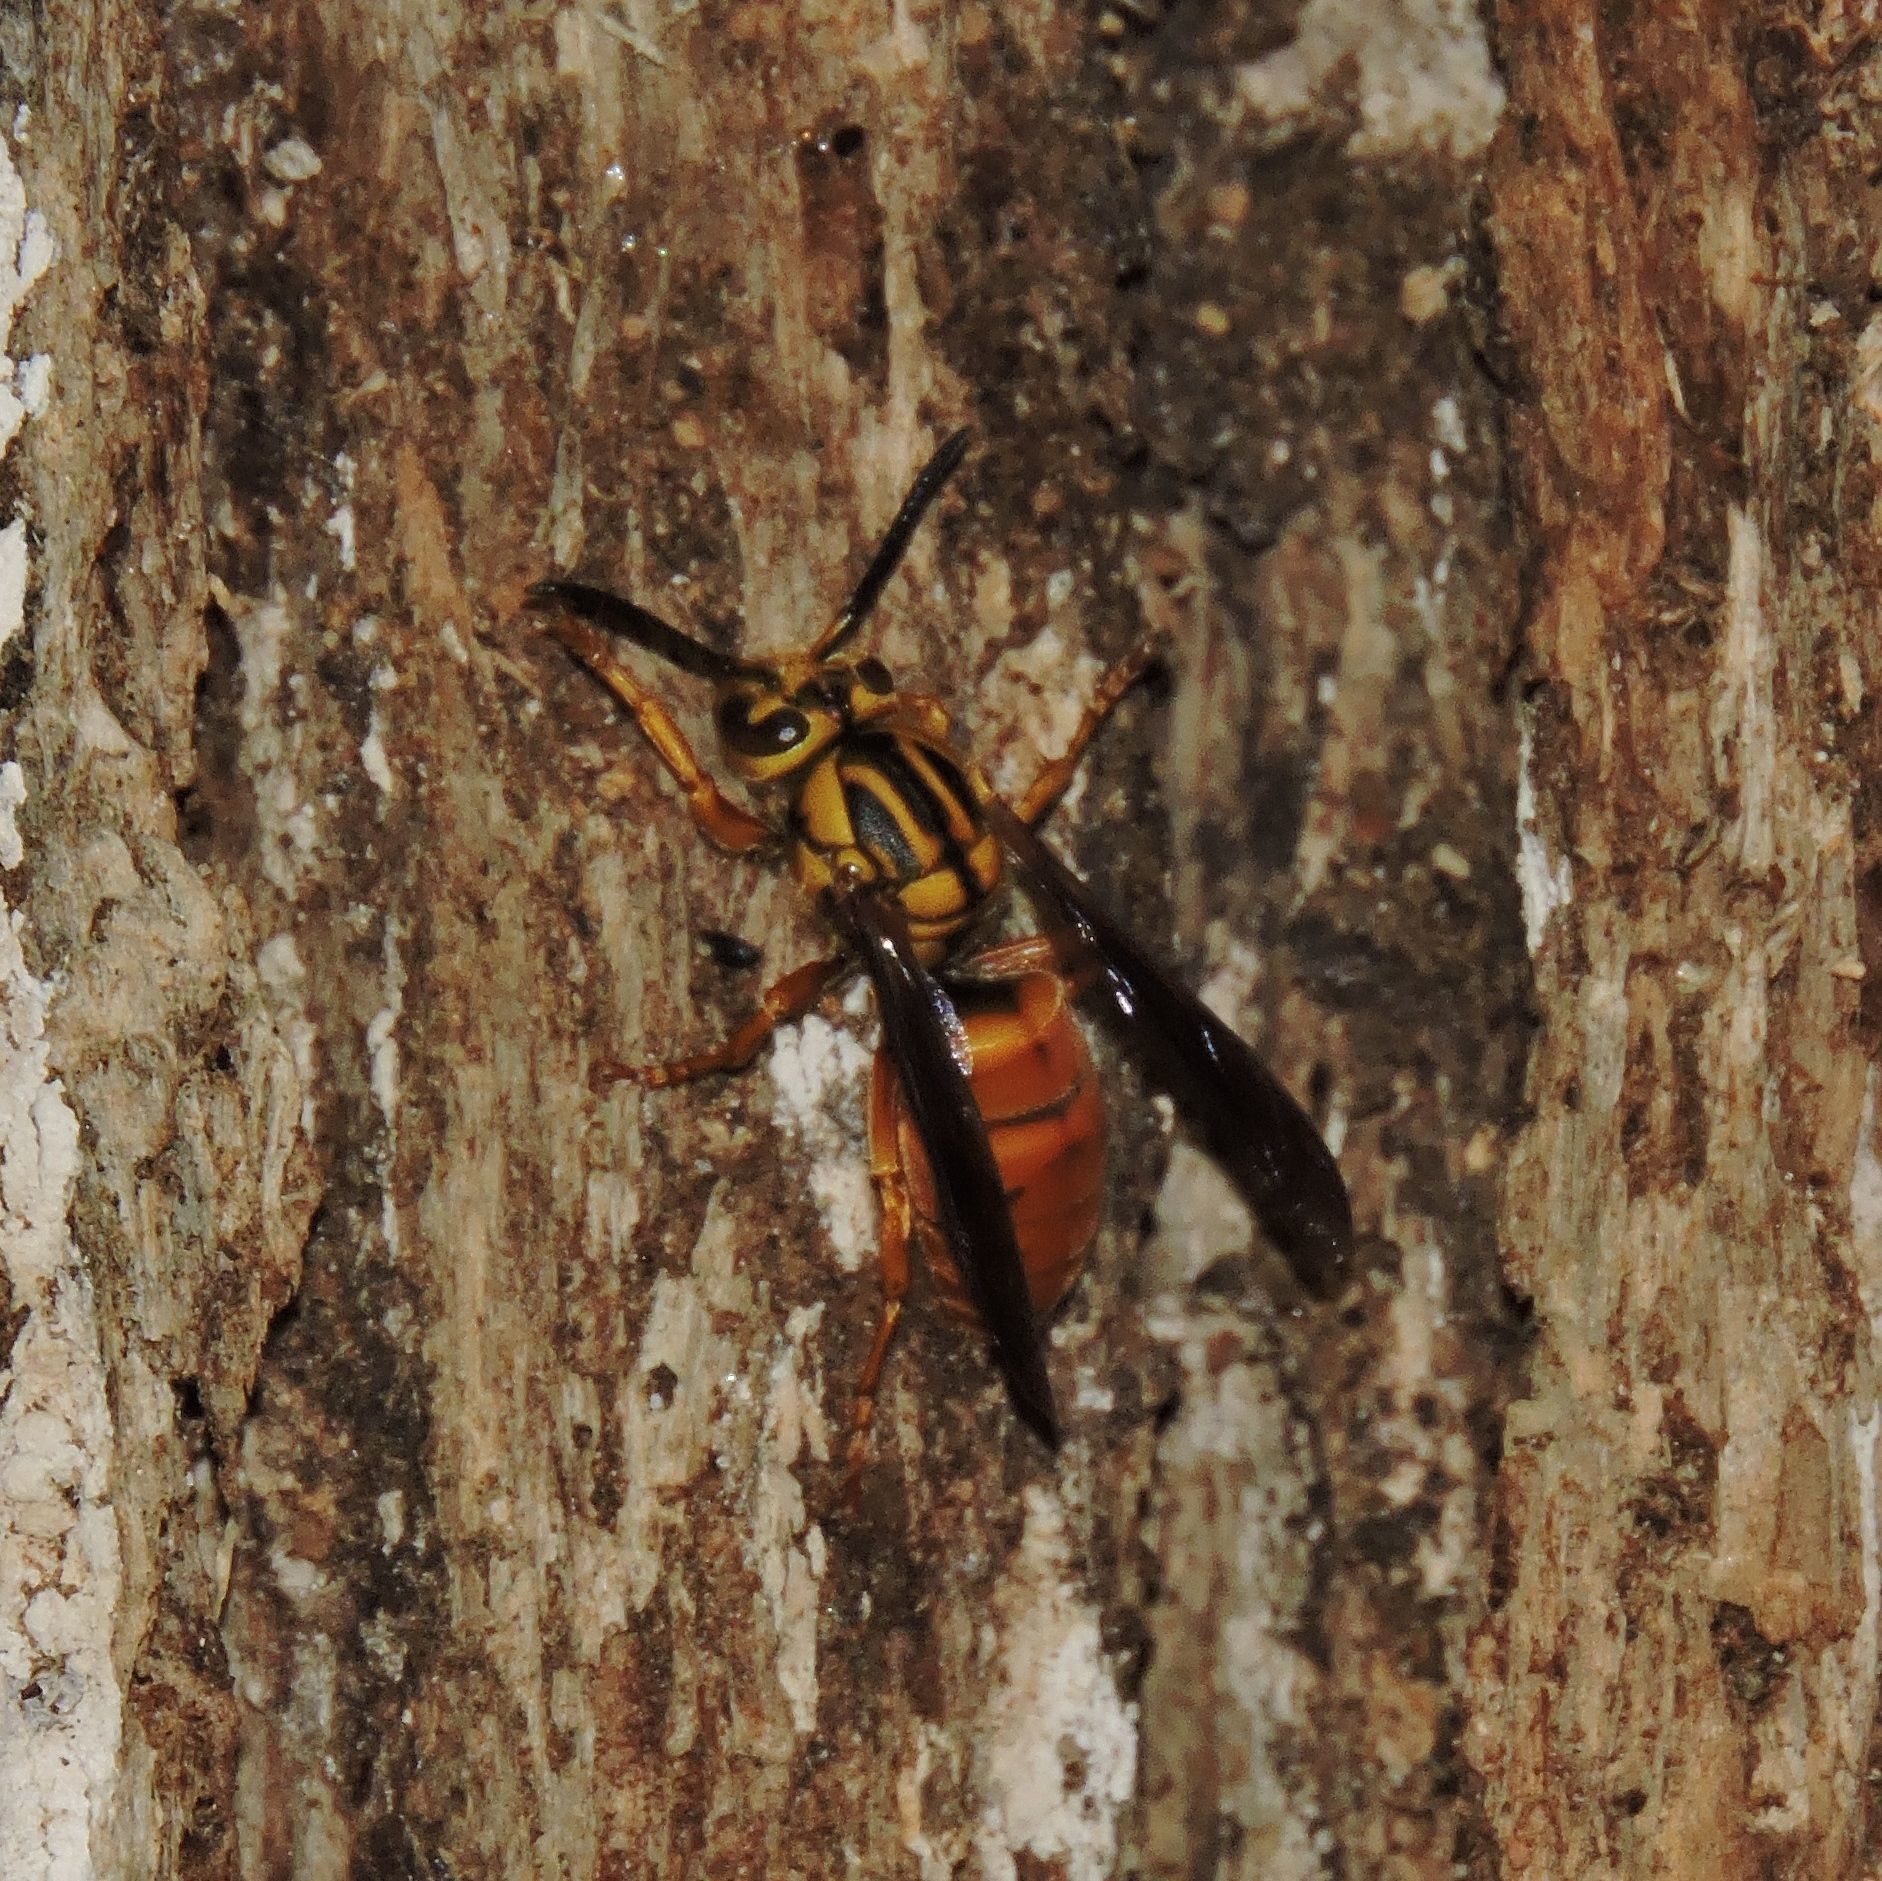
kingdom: Animalia
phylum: Arthropoda
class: Insecta
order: Hymenoptera
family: Vespidae
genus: Vespula
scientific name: Vespula squamosa
